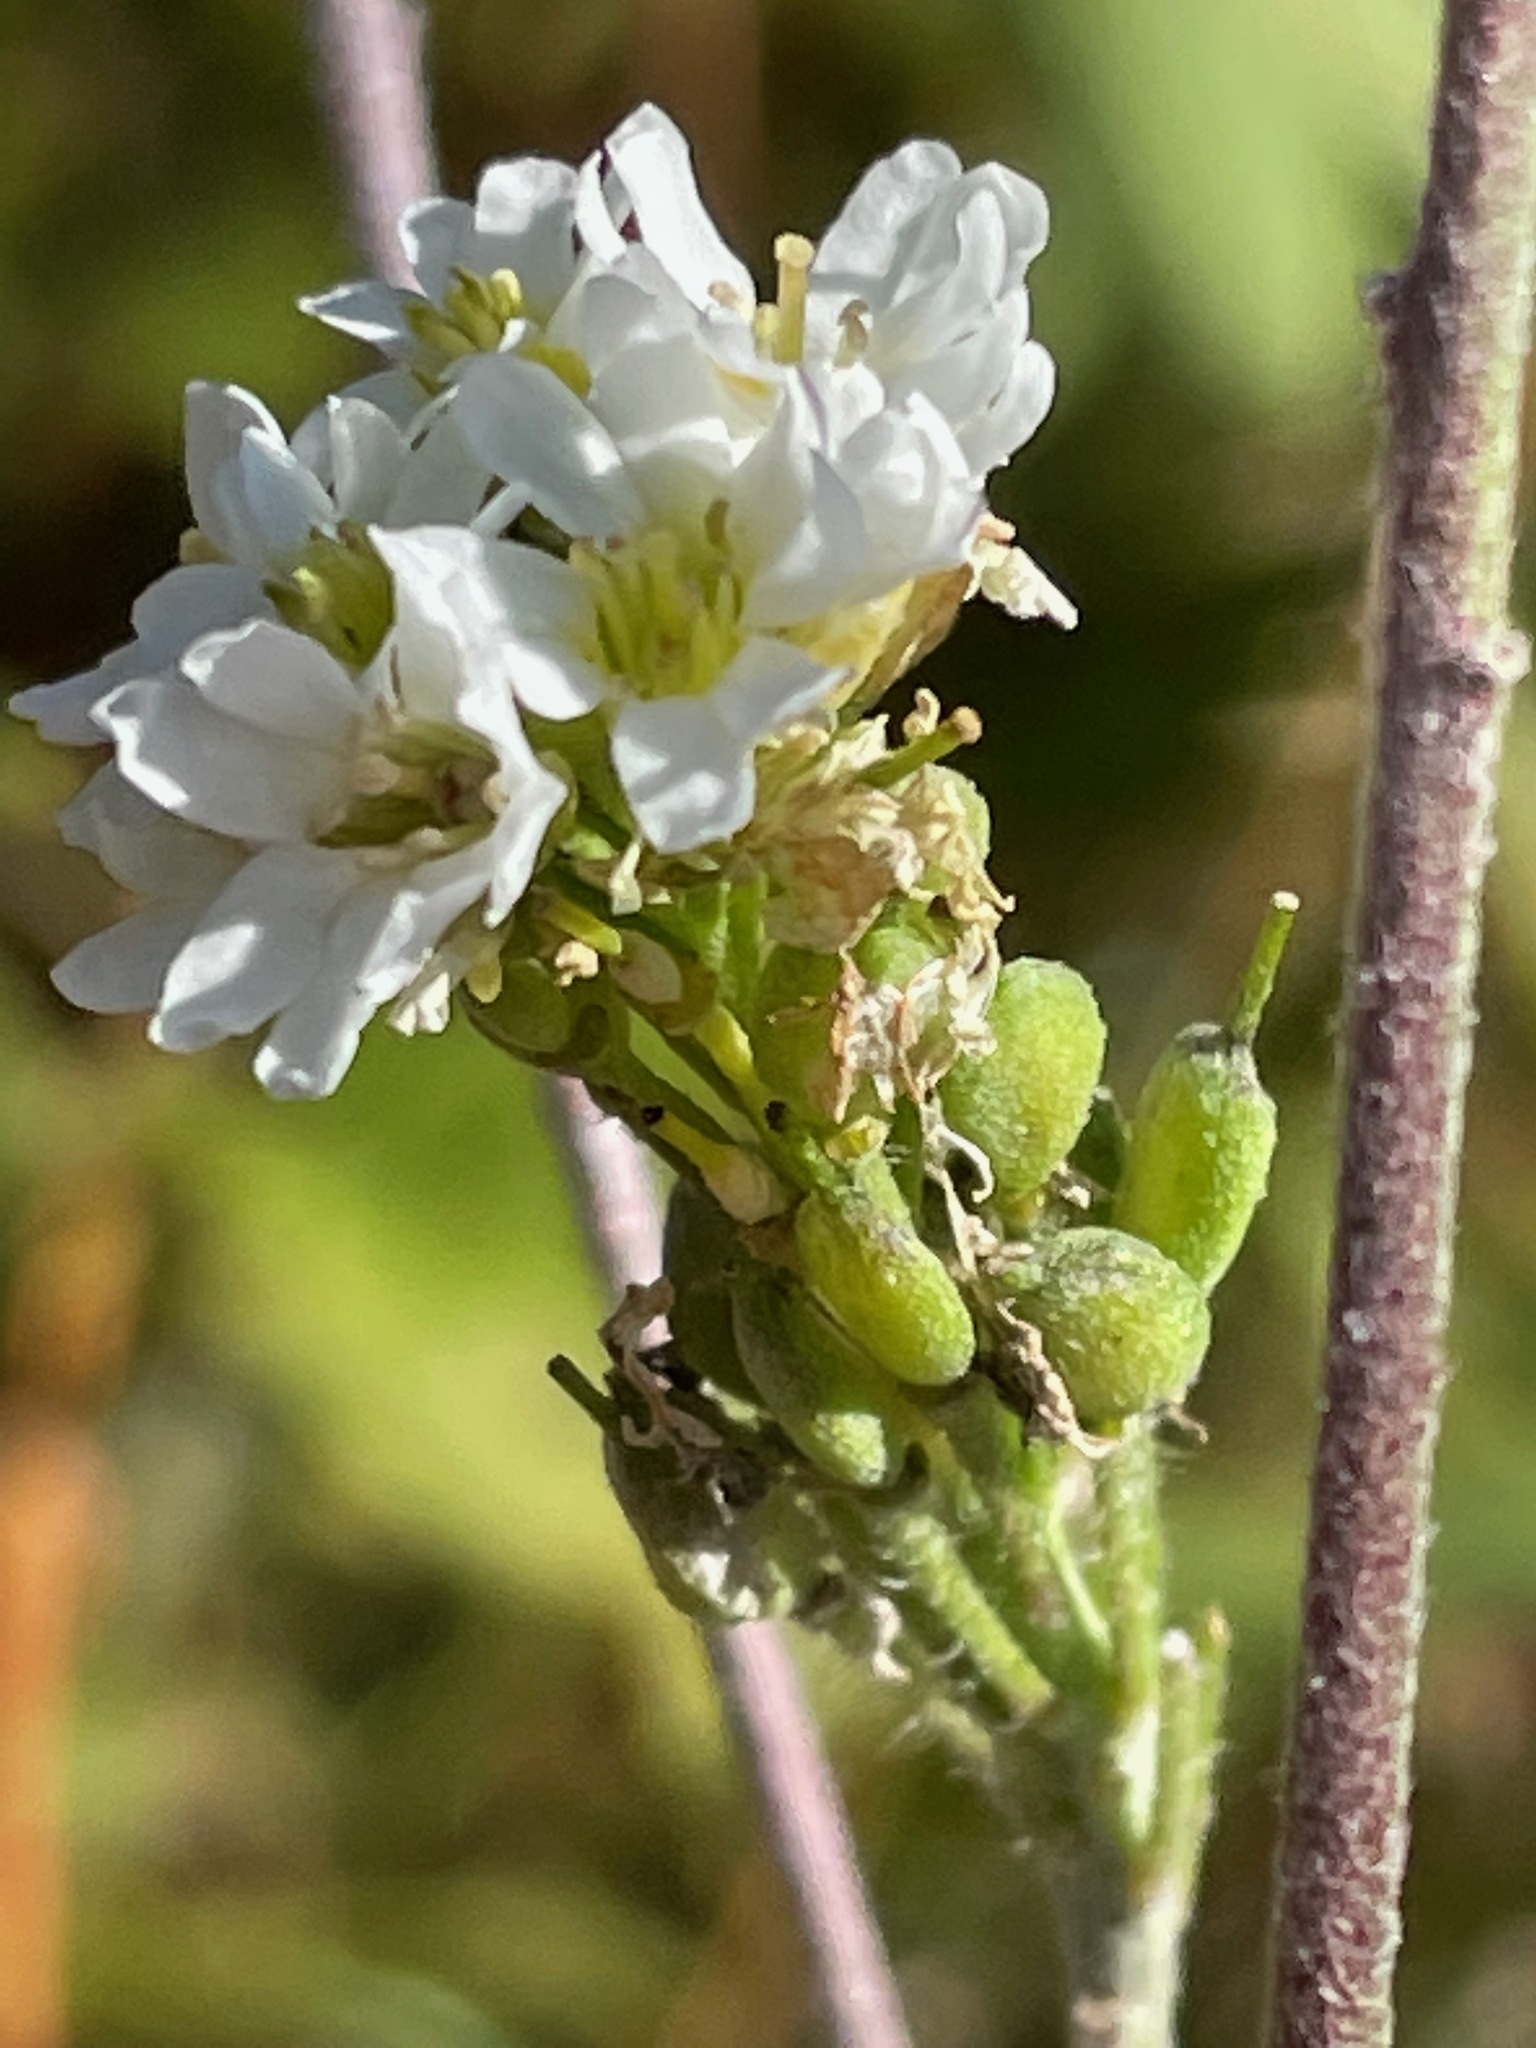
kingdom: Plantae
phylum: Tracheophyta
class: Magnoliopsida
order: Brassicales
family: Brassicaceae
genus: Berteroa
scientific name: Berteroa incana
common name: Hoary alison
